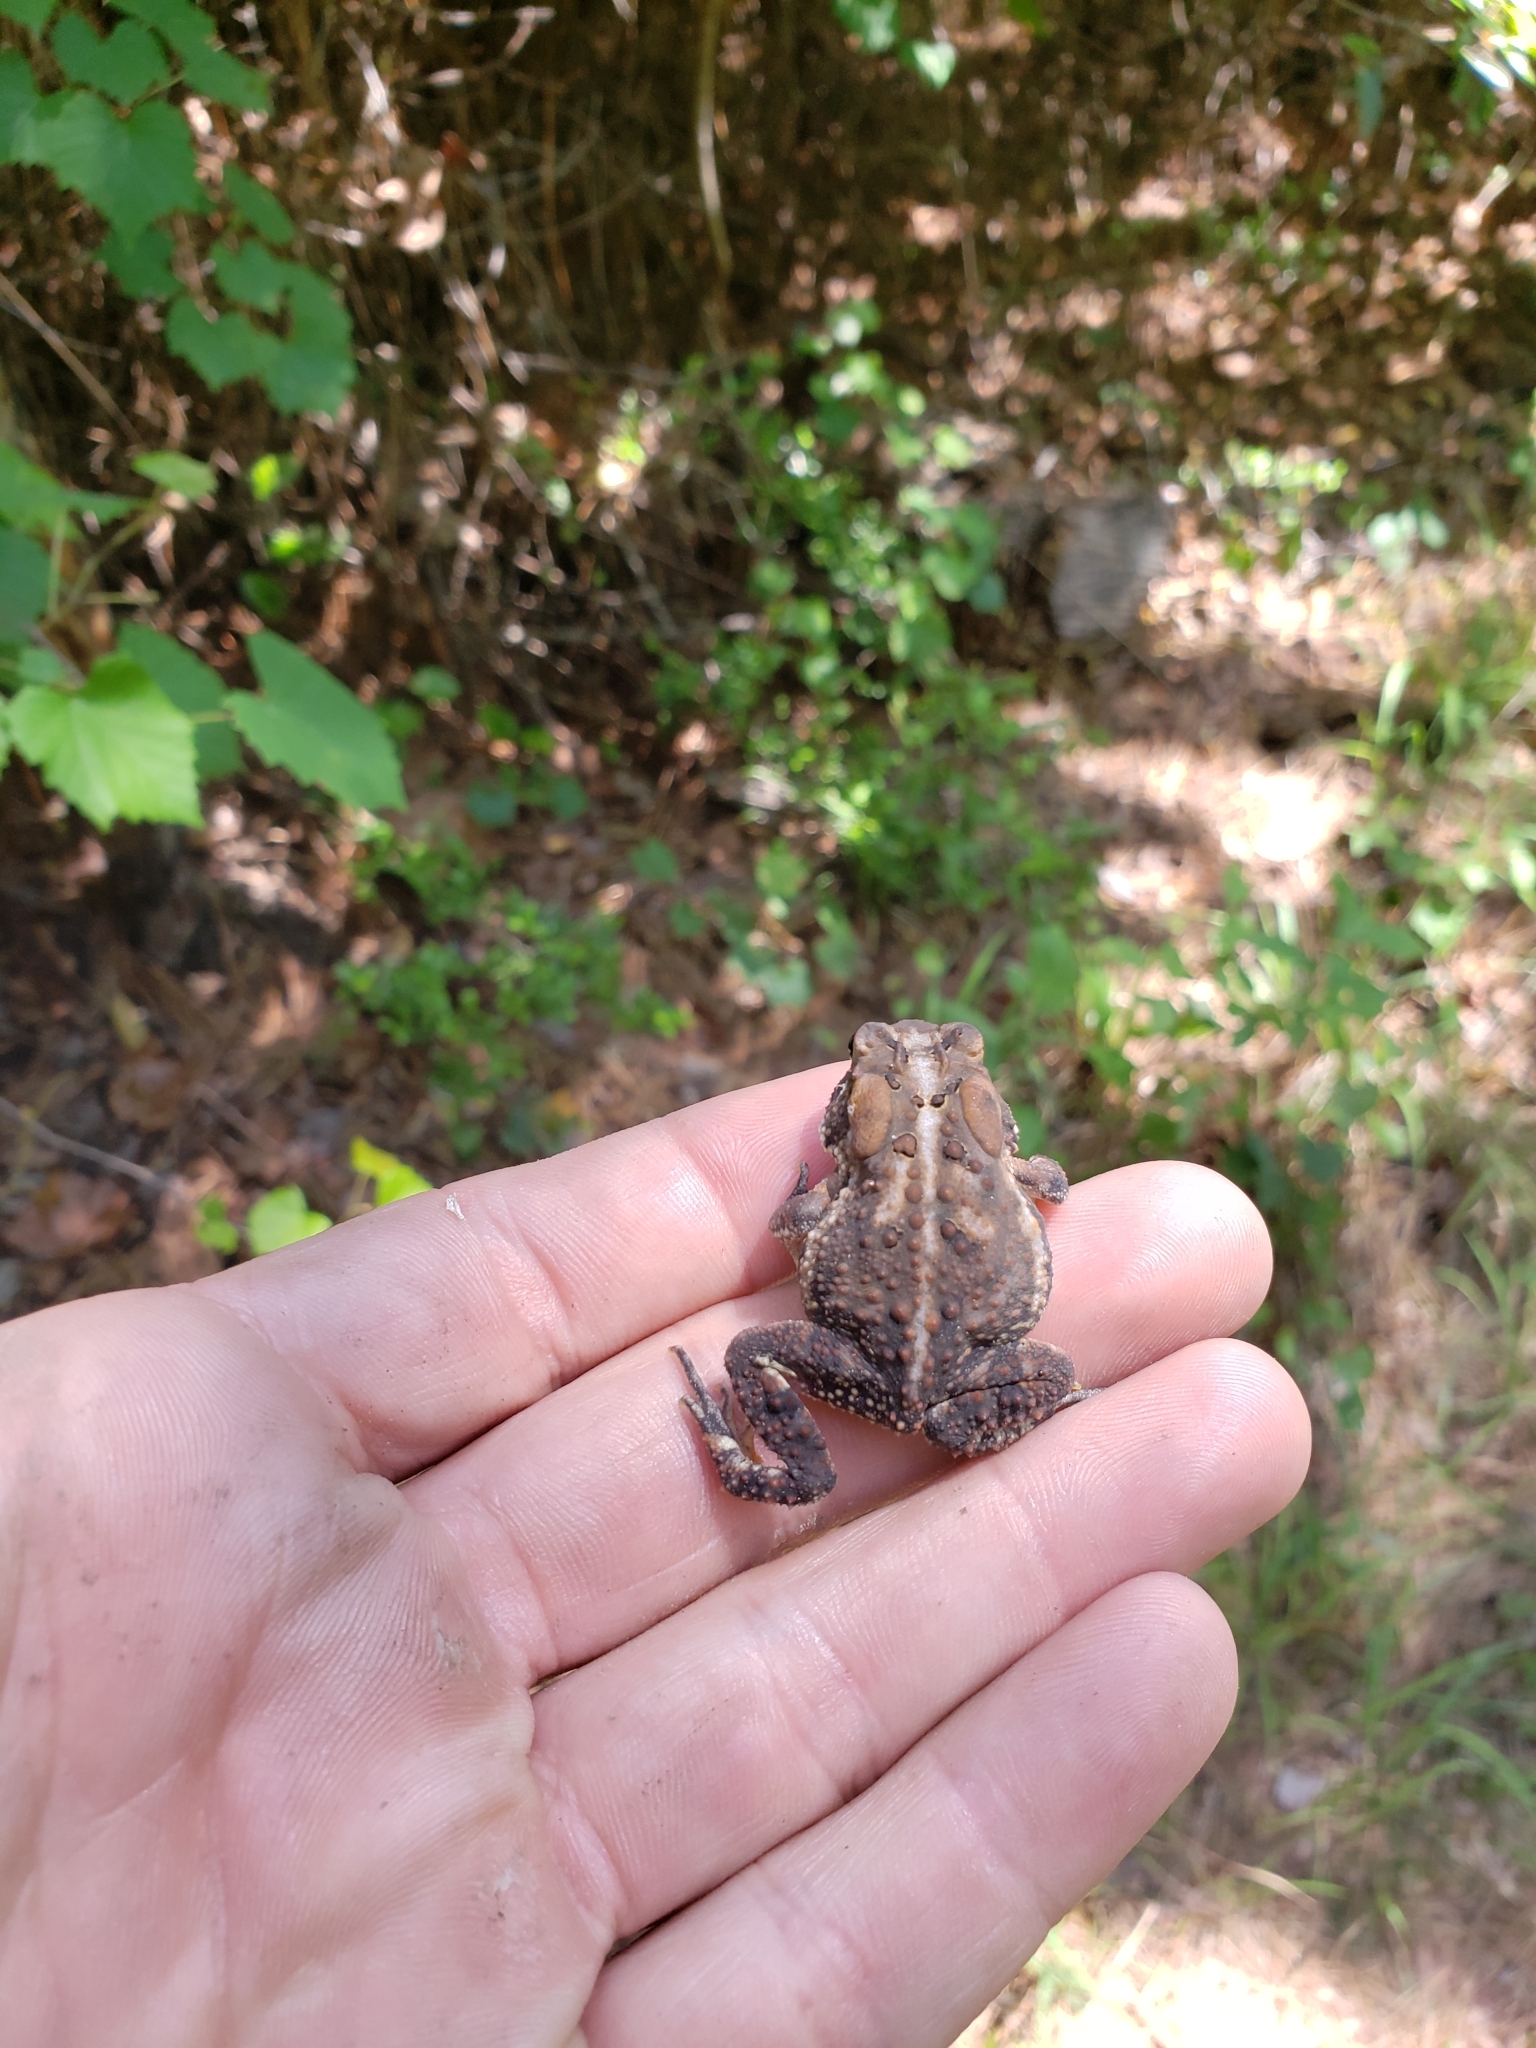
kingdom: Animalia
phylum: Chordata
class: Amphibia
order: Anura
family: Bufonidae
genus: Anaxyrus
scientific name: Anaxyrus terrestris
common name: Southern toad
